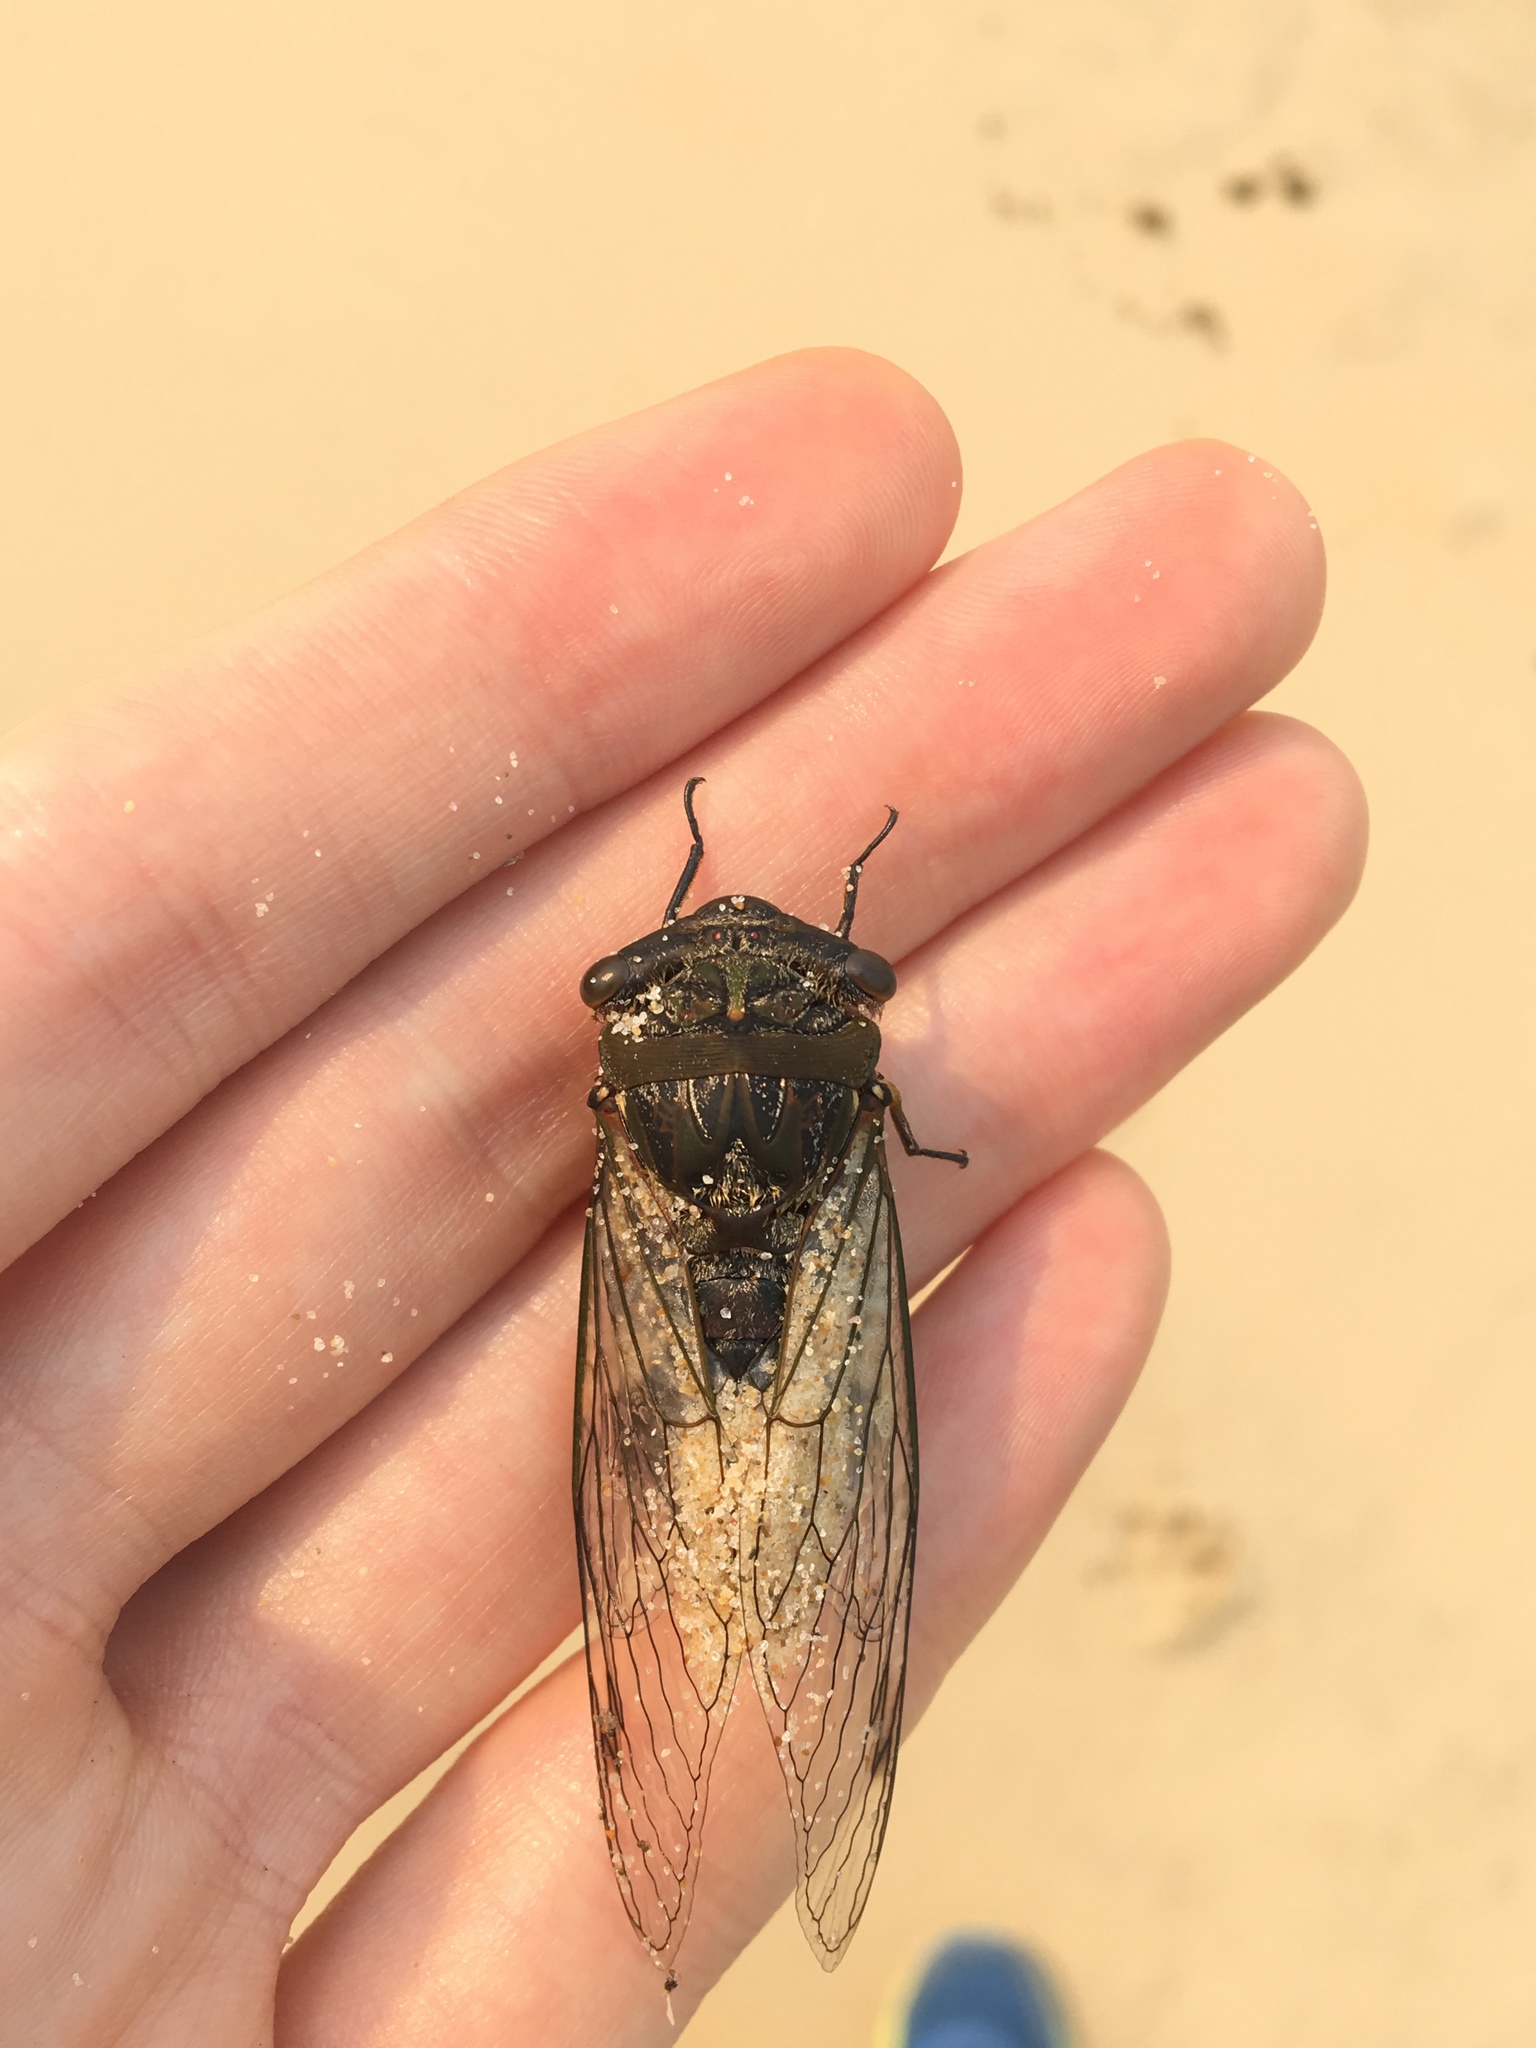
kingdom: Animalia
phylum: Arthropoda
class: Insecta
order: Hemiptera
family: Cicadidae
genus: Psaltoda
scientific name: Psaltoda plaga
